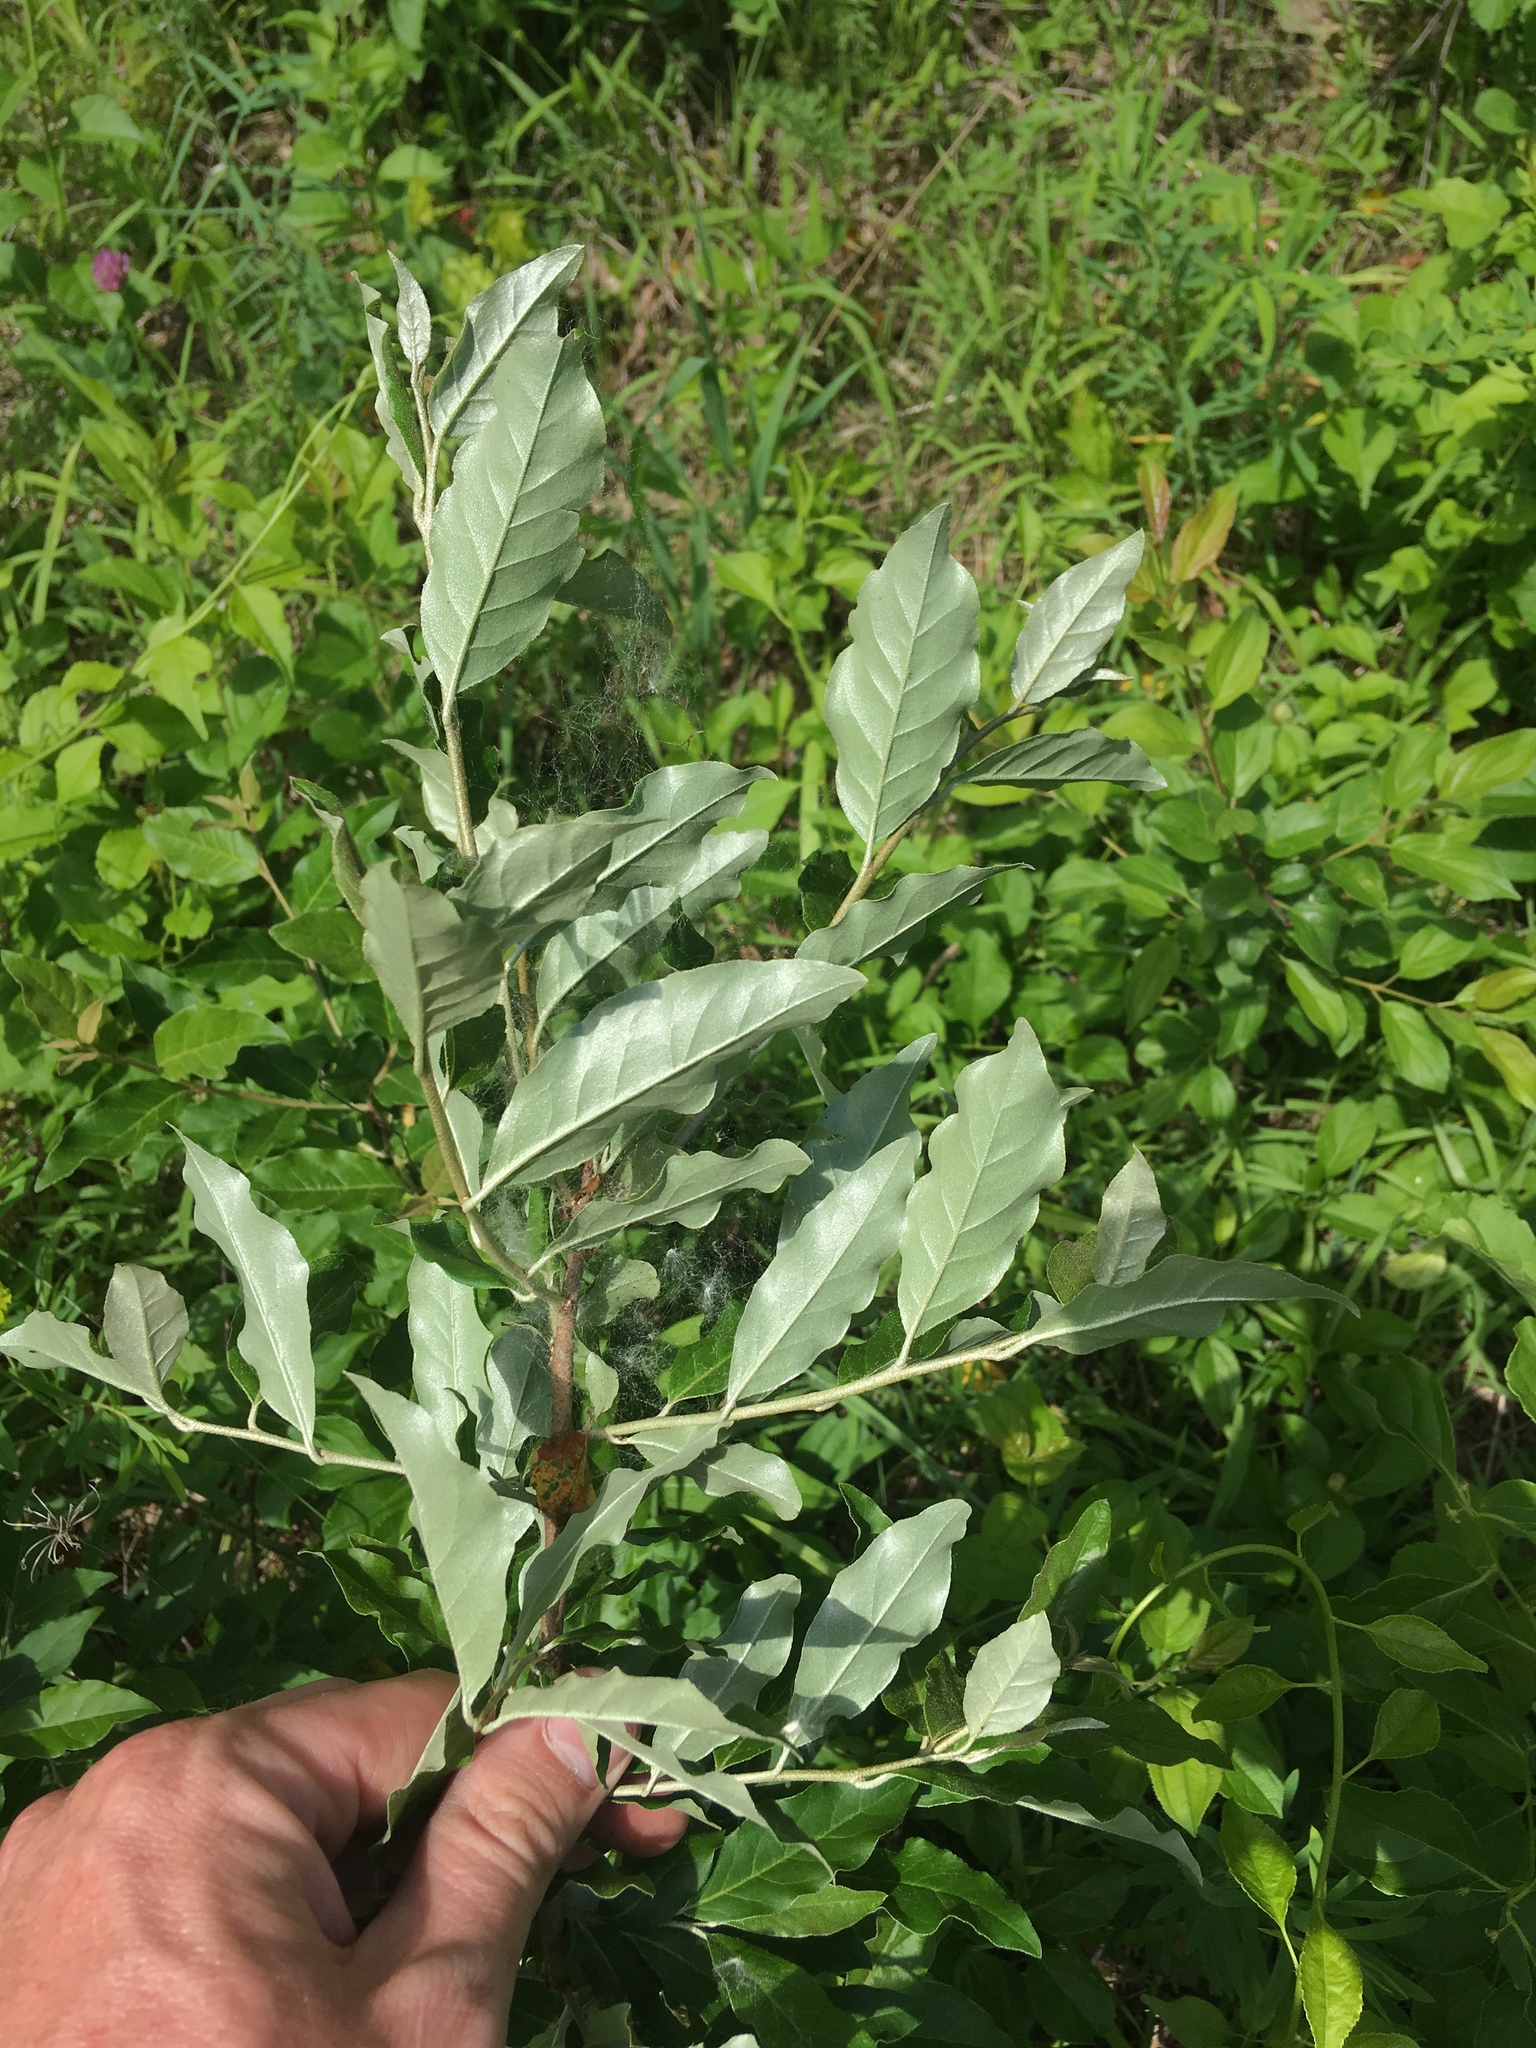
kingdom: Plantae
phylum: Tracheophyta
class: Magnoliopsida
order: Rosales
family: Elaeagnaceae
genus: Elaeagnus
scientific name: Elaeagnus umbellata
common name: Autumn olive
